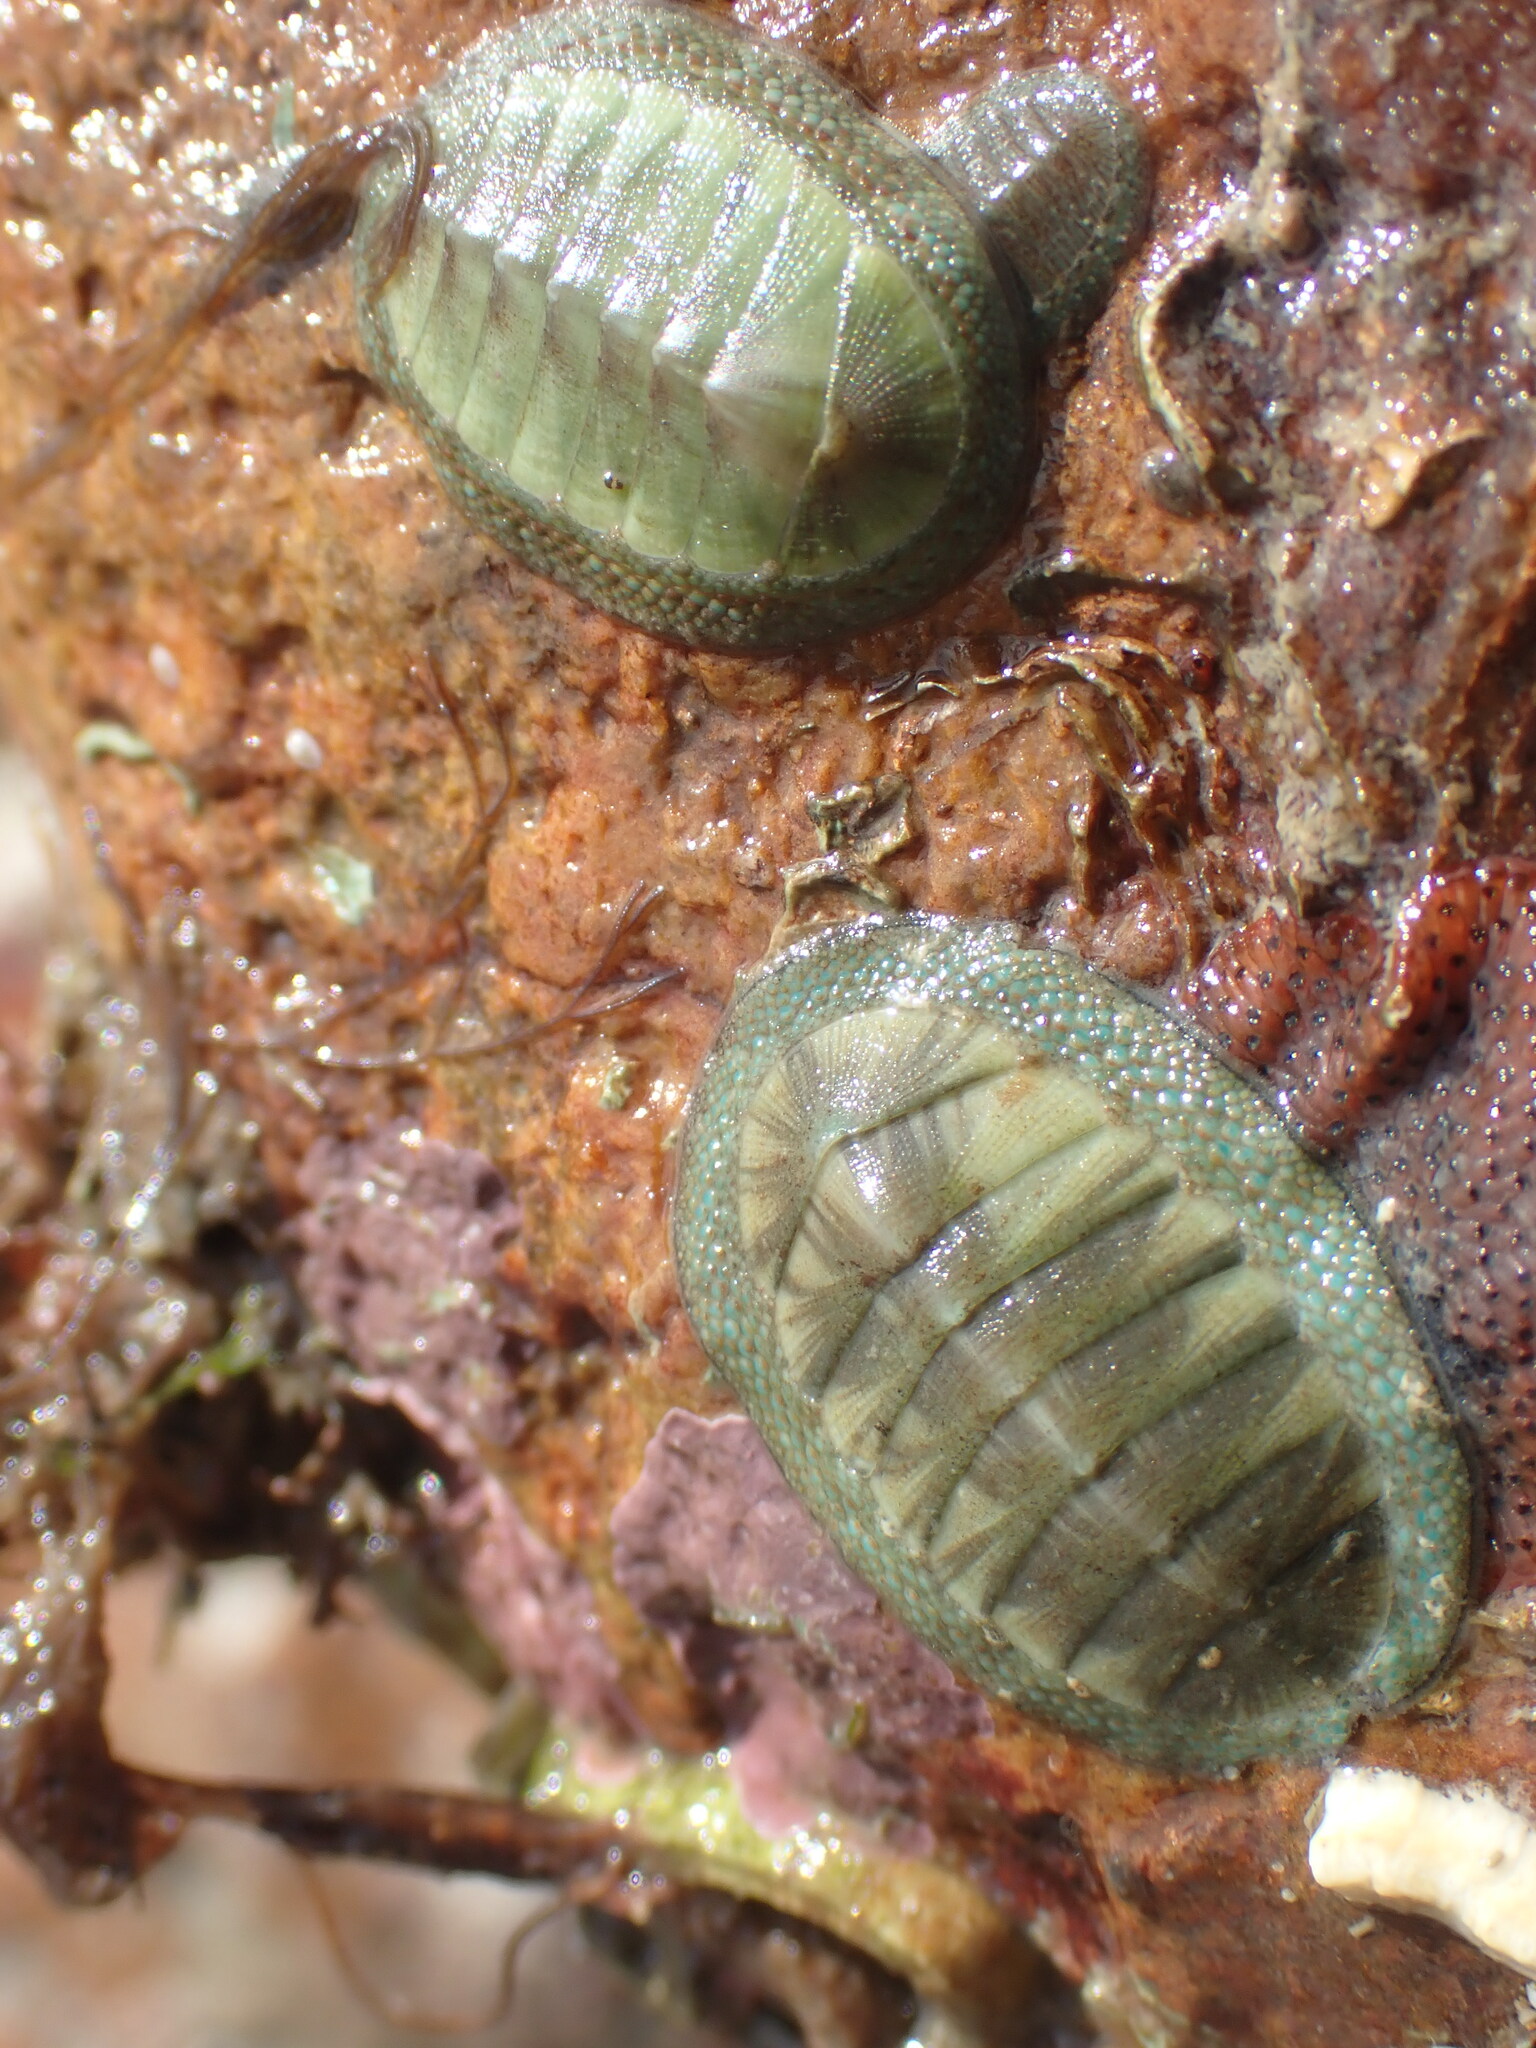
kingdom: Animalia
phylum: Mollusca
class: Polyplacophora
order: Chitonida
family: Chitonidae
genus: Chiton
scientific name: Chiton glaucus
